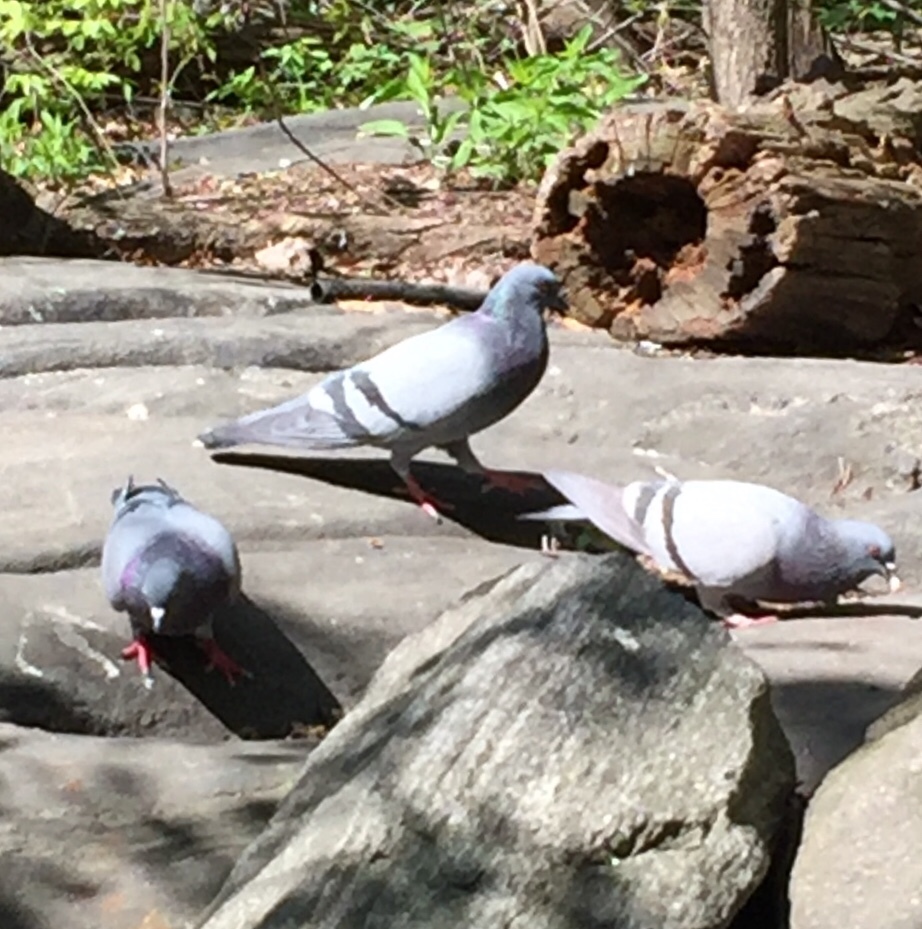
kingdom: Animalia
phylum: Chordata
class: Aves
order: Columbiformes
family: Columbidae
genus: Columba
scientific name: Columba livia
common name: Rock pigeon
